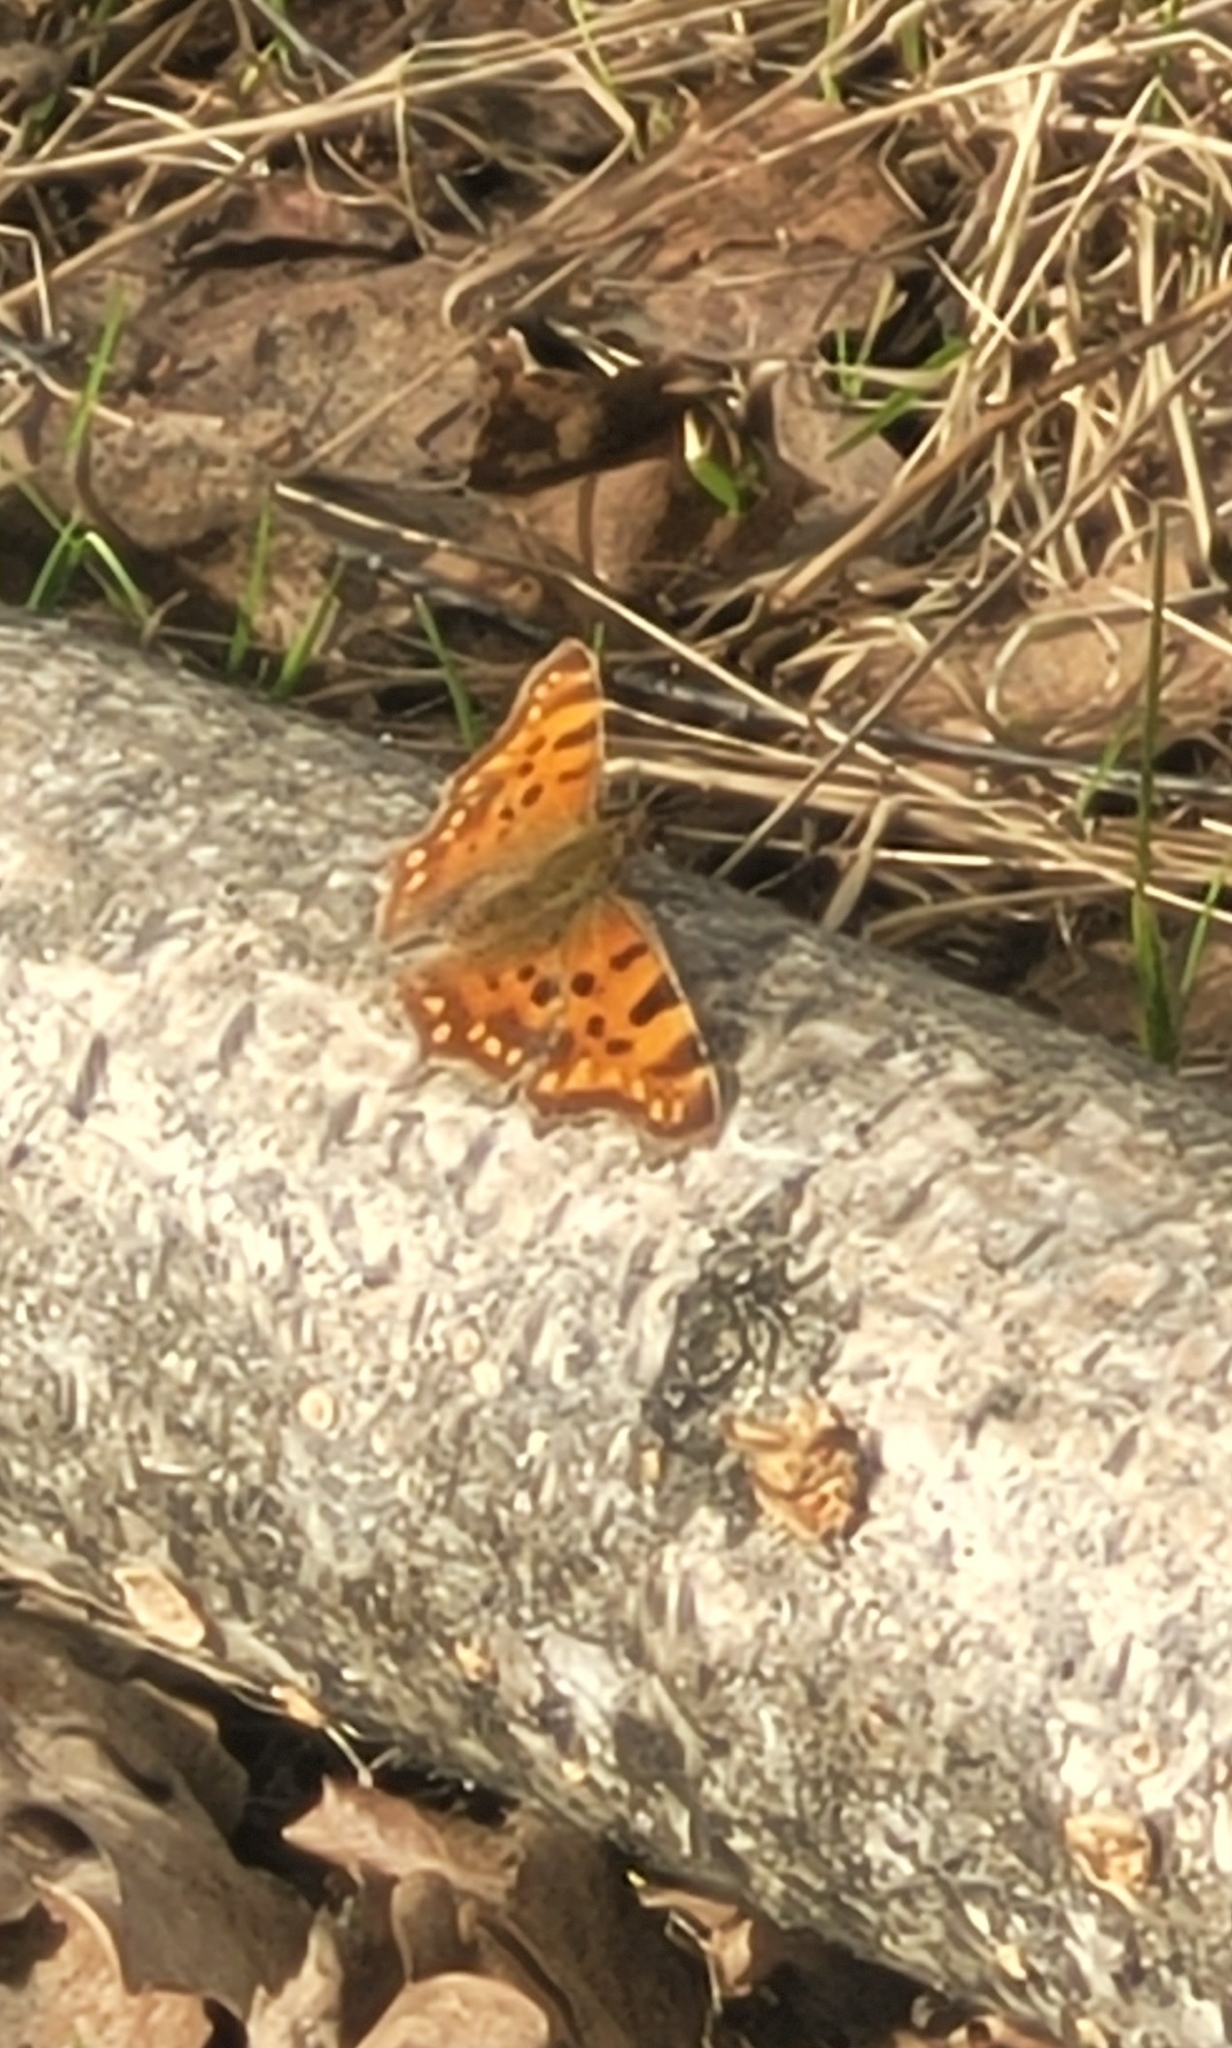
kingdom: Animalia
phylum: Arthropoda
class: Insecta
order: Lepidoptera
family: Nymphalidae
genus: Polygonia
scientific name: Polygonia c-album
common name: Comma
